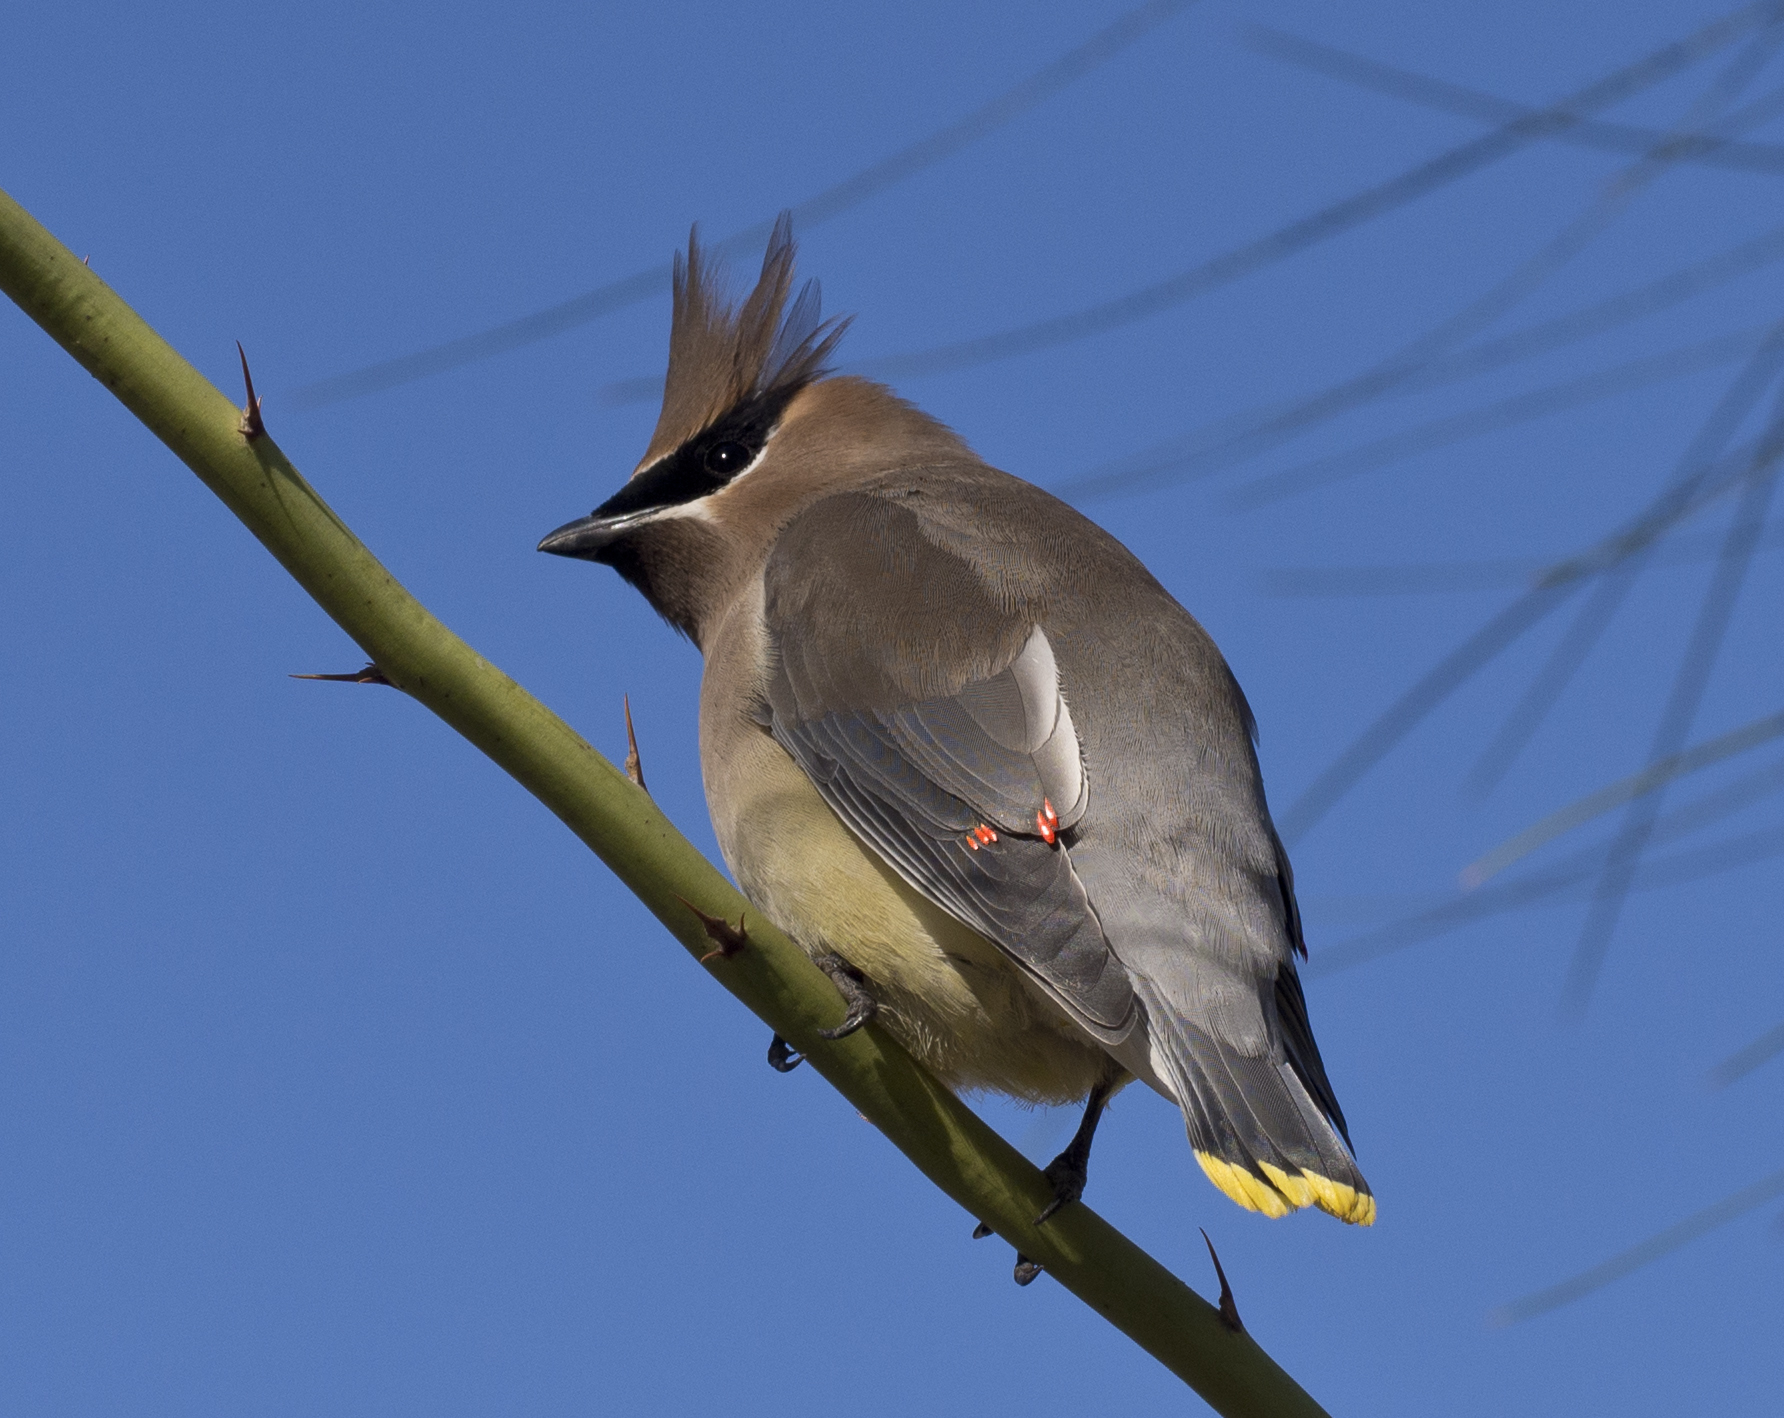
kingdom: Animalia
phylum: Chordata
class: Aves
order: Passeriformes
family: Bombycillidae
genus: Bombycilla
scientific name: Bombycilla cedrorum
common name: Cedar waxwing
